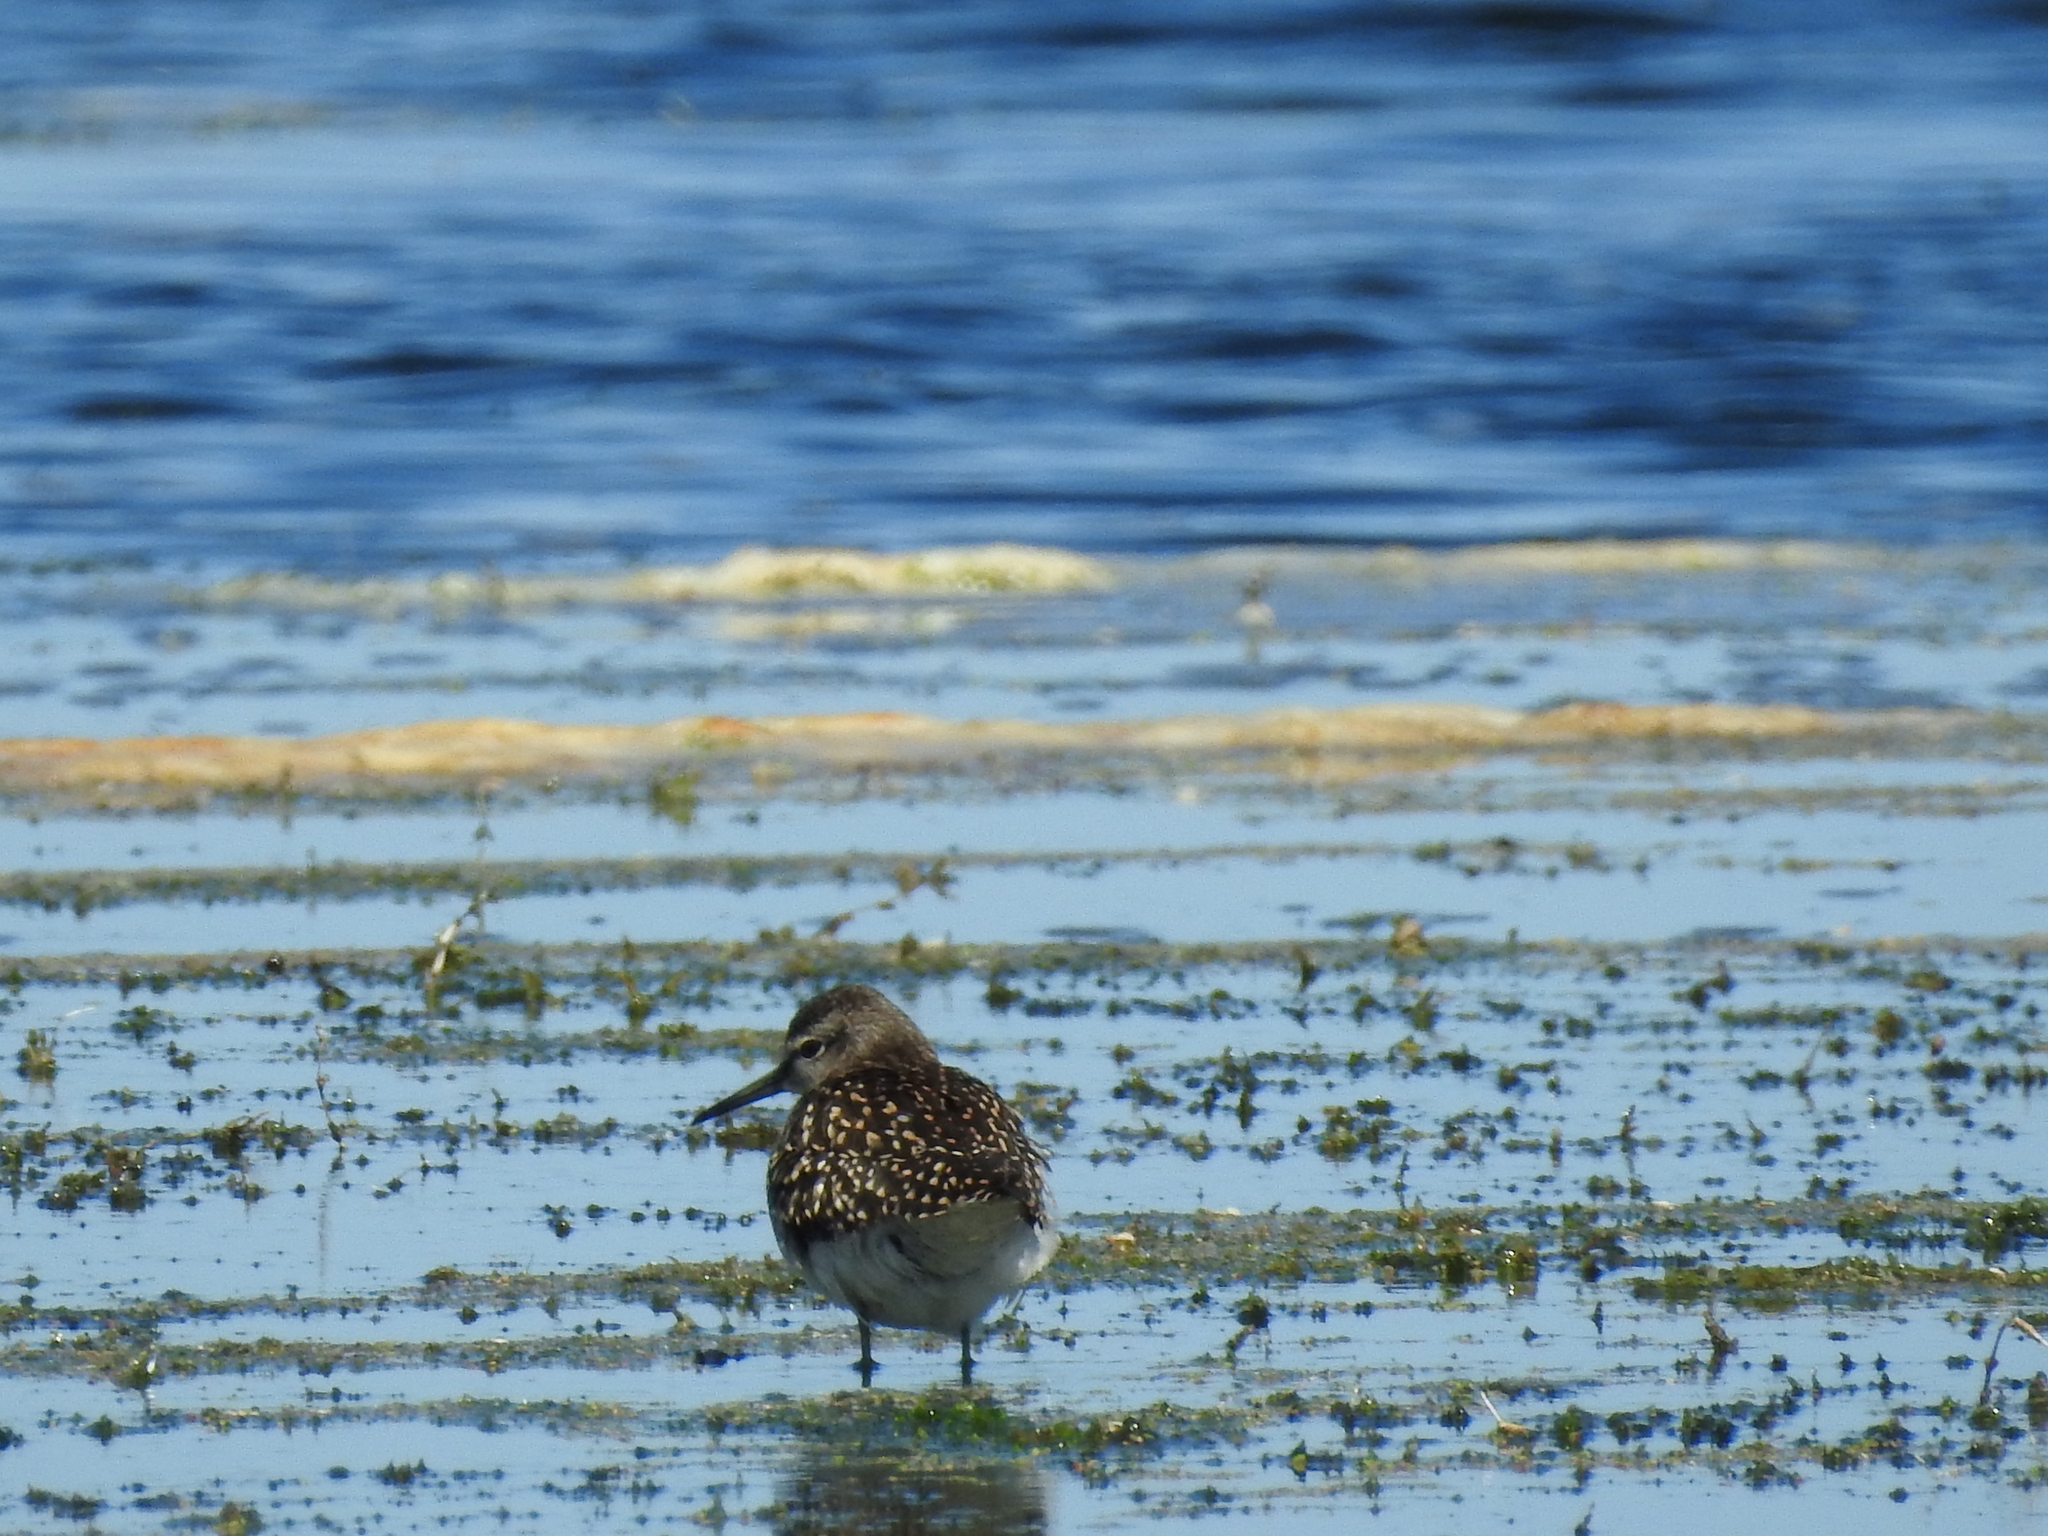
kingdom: Animalia
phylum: Chordata
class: Aves
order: Charadriiformes
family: Scolopacidae
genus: Tringa
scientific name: Tringa glareola
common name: Wood sandpiper
